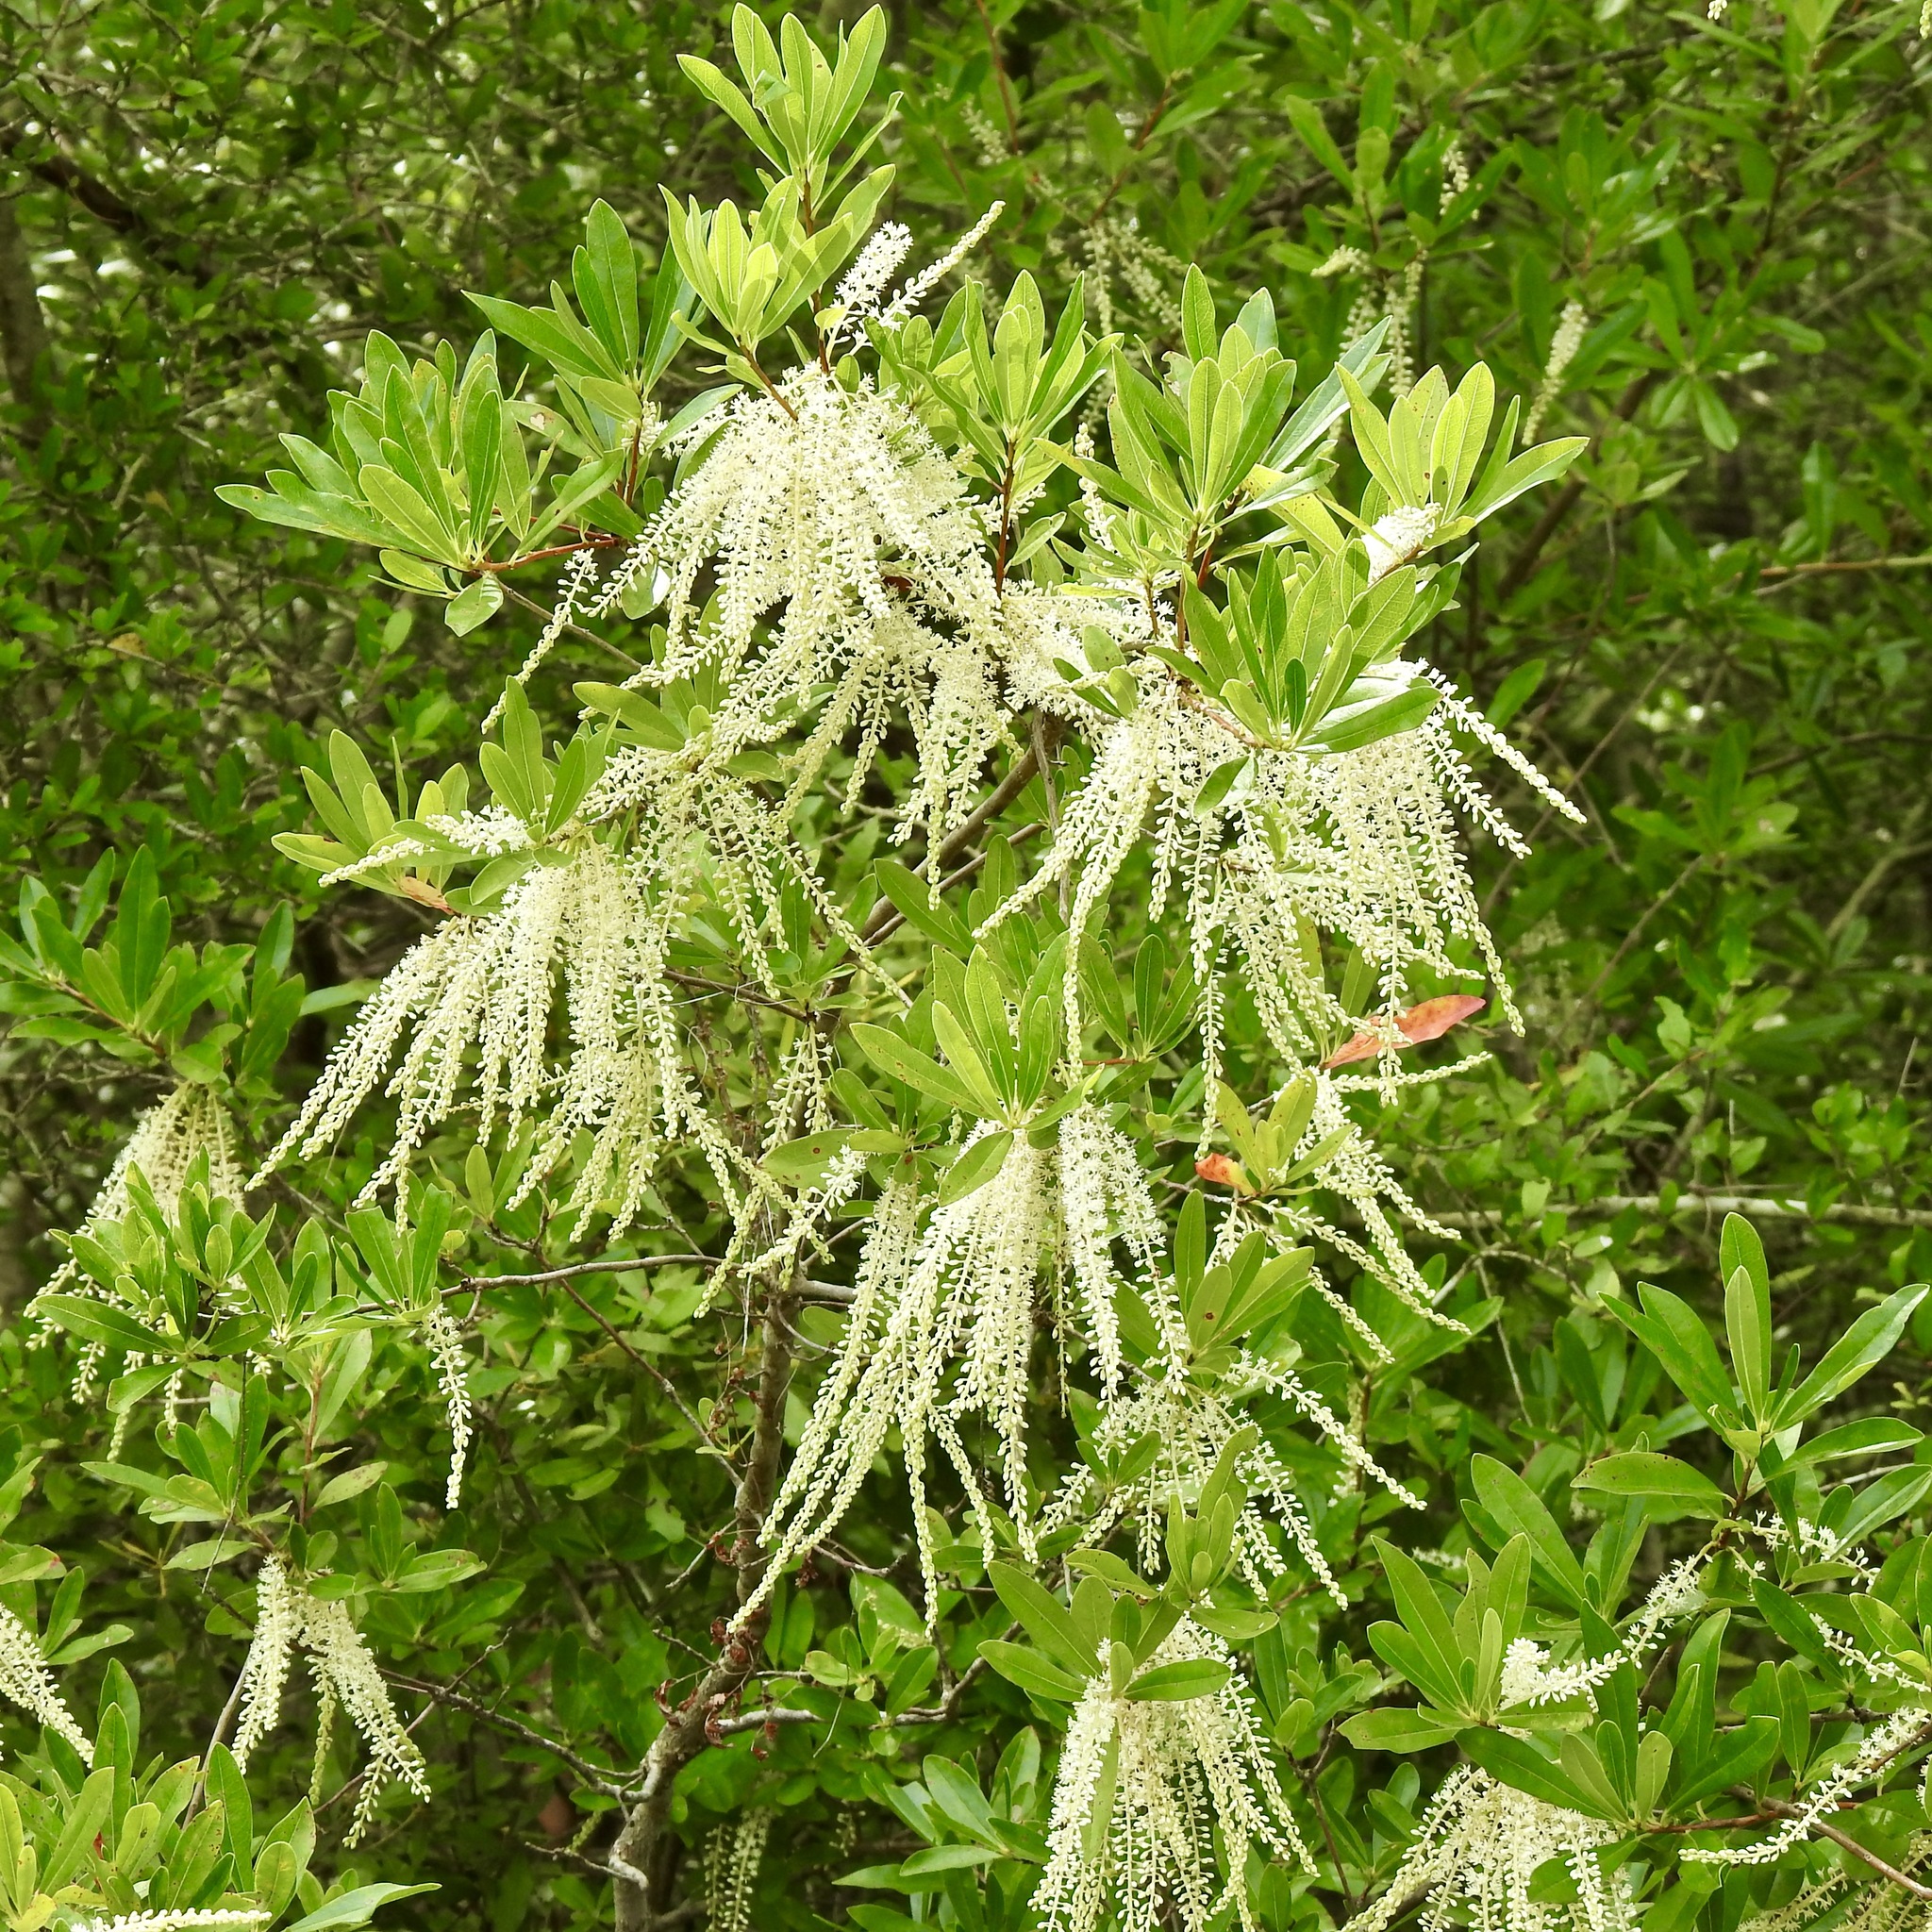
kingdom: Plantae
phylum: Tracheophyta
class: Magnoliopsida
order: Ericales
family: Cyrillaceae
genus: Cyrilla
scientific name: Cyrilla racemiflora
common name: Black titi
